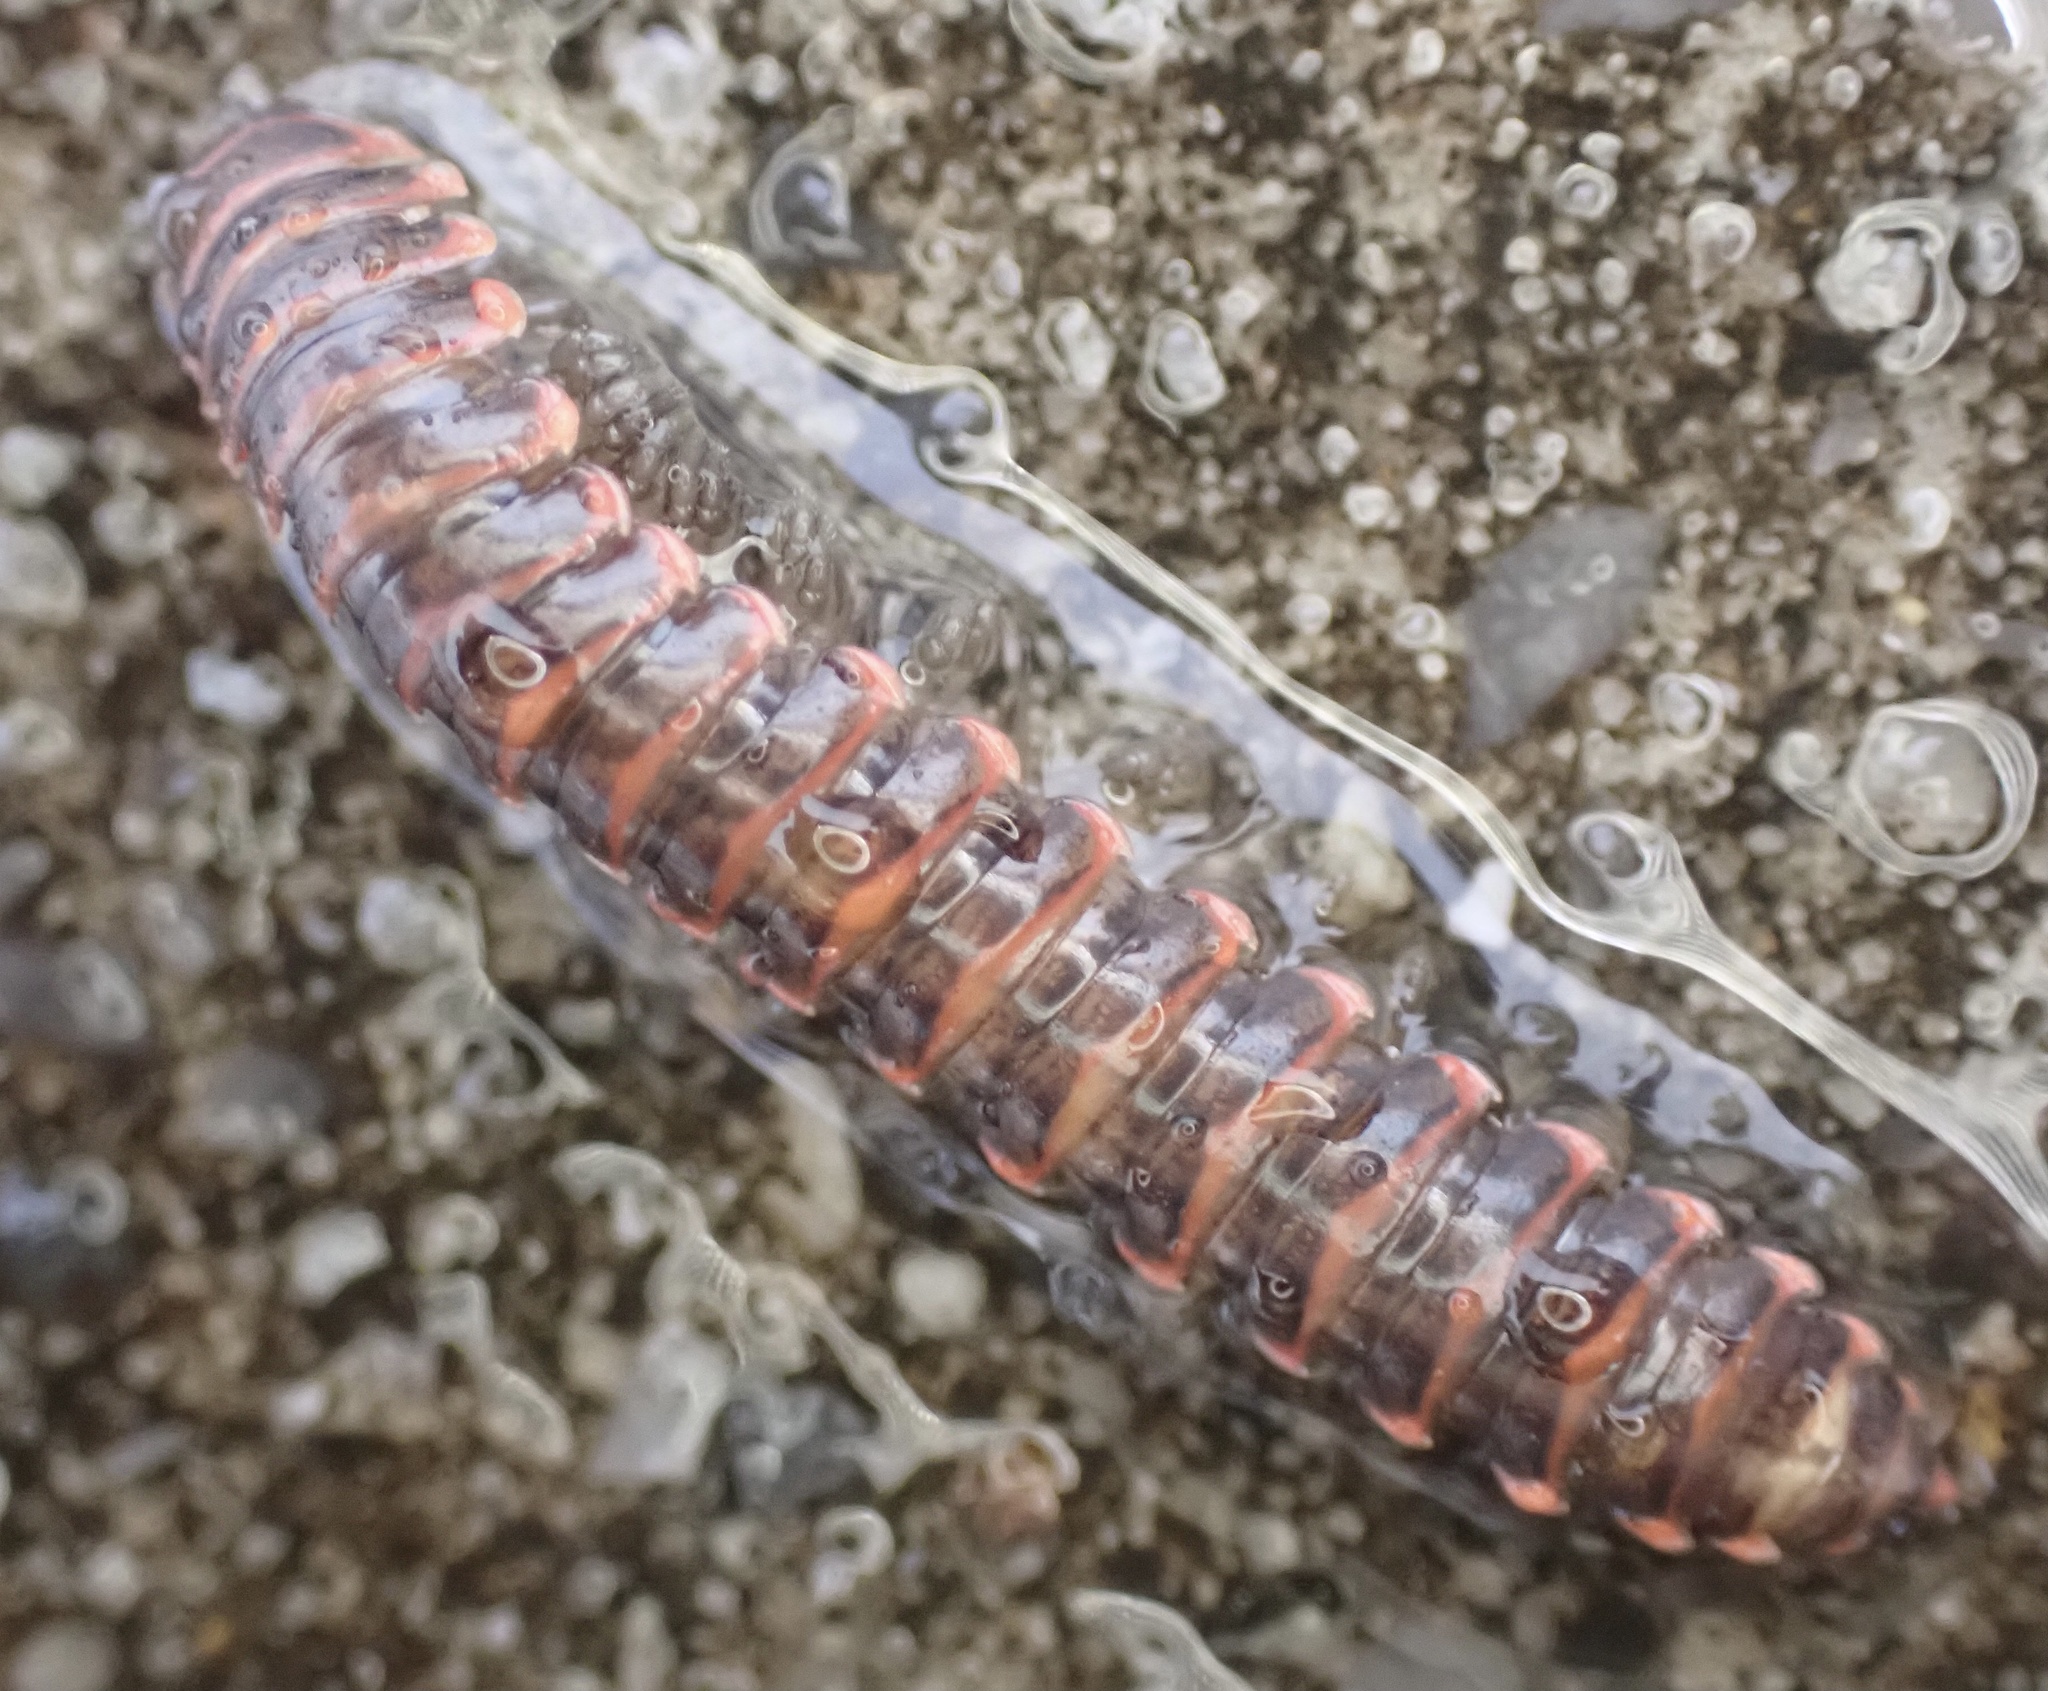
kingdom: Animalia
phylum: Arthropoda
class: Diplopoda
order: Polydesmida
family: Xystodesmidae
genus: Oenomaea
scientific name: Oenomaea pulchella
